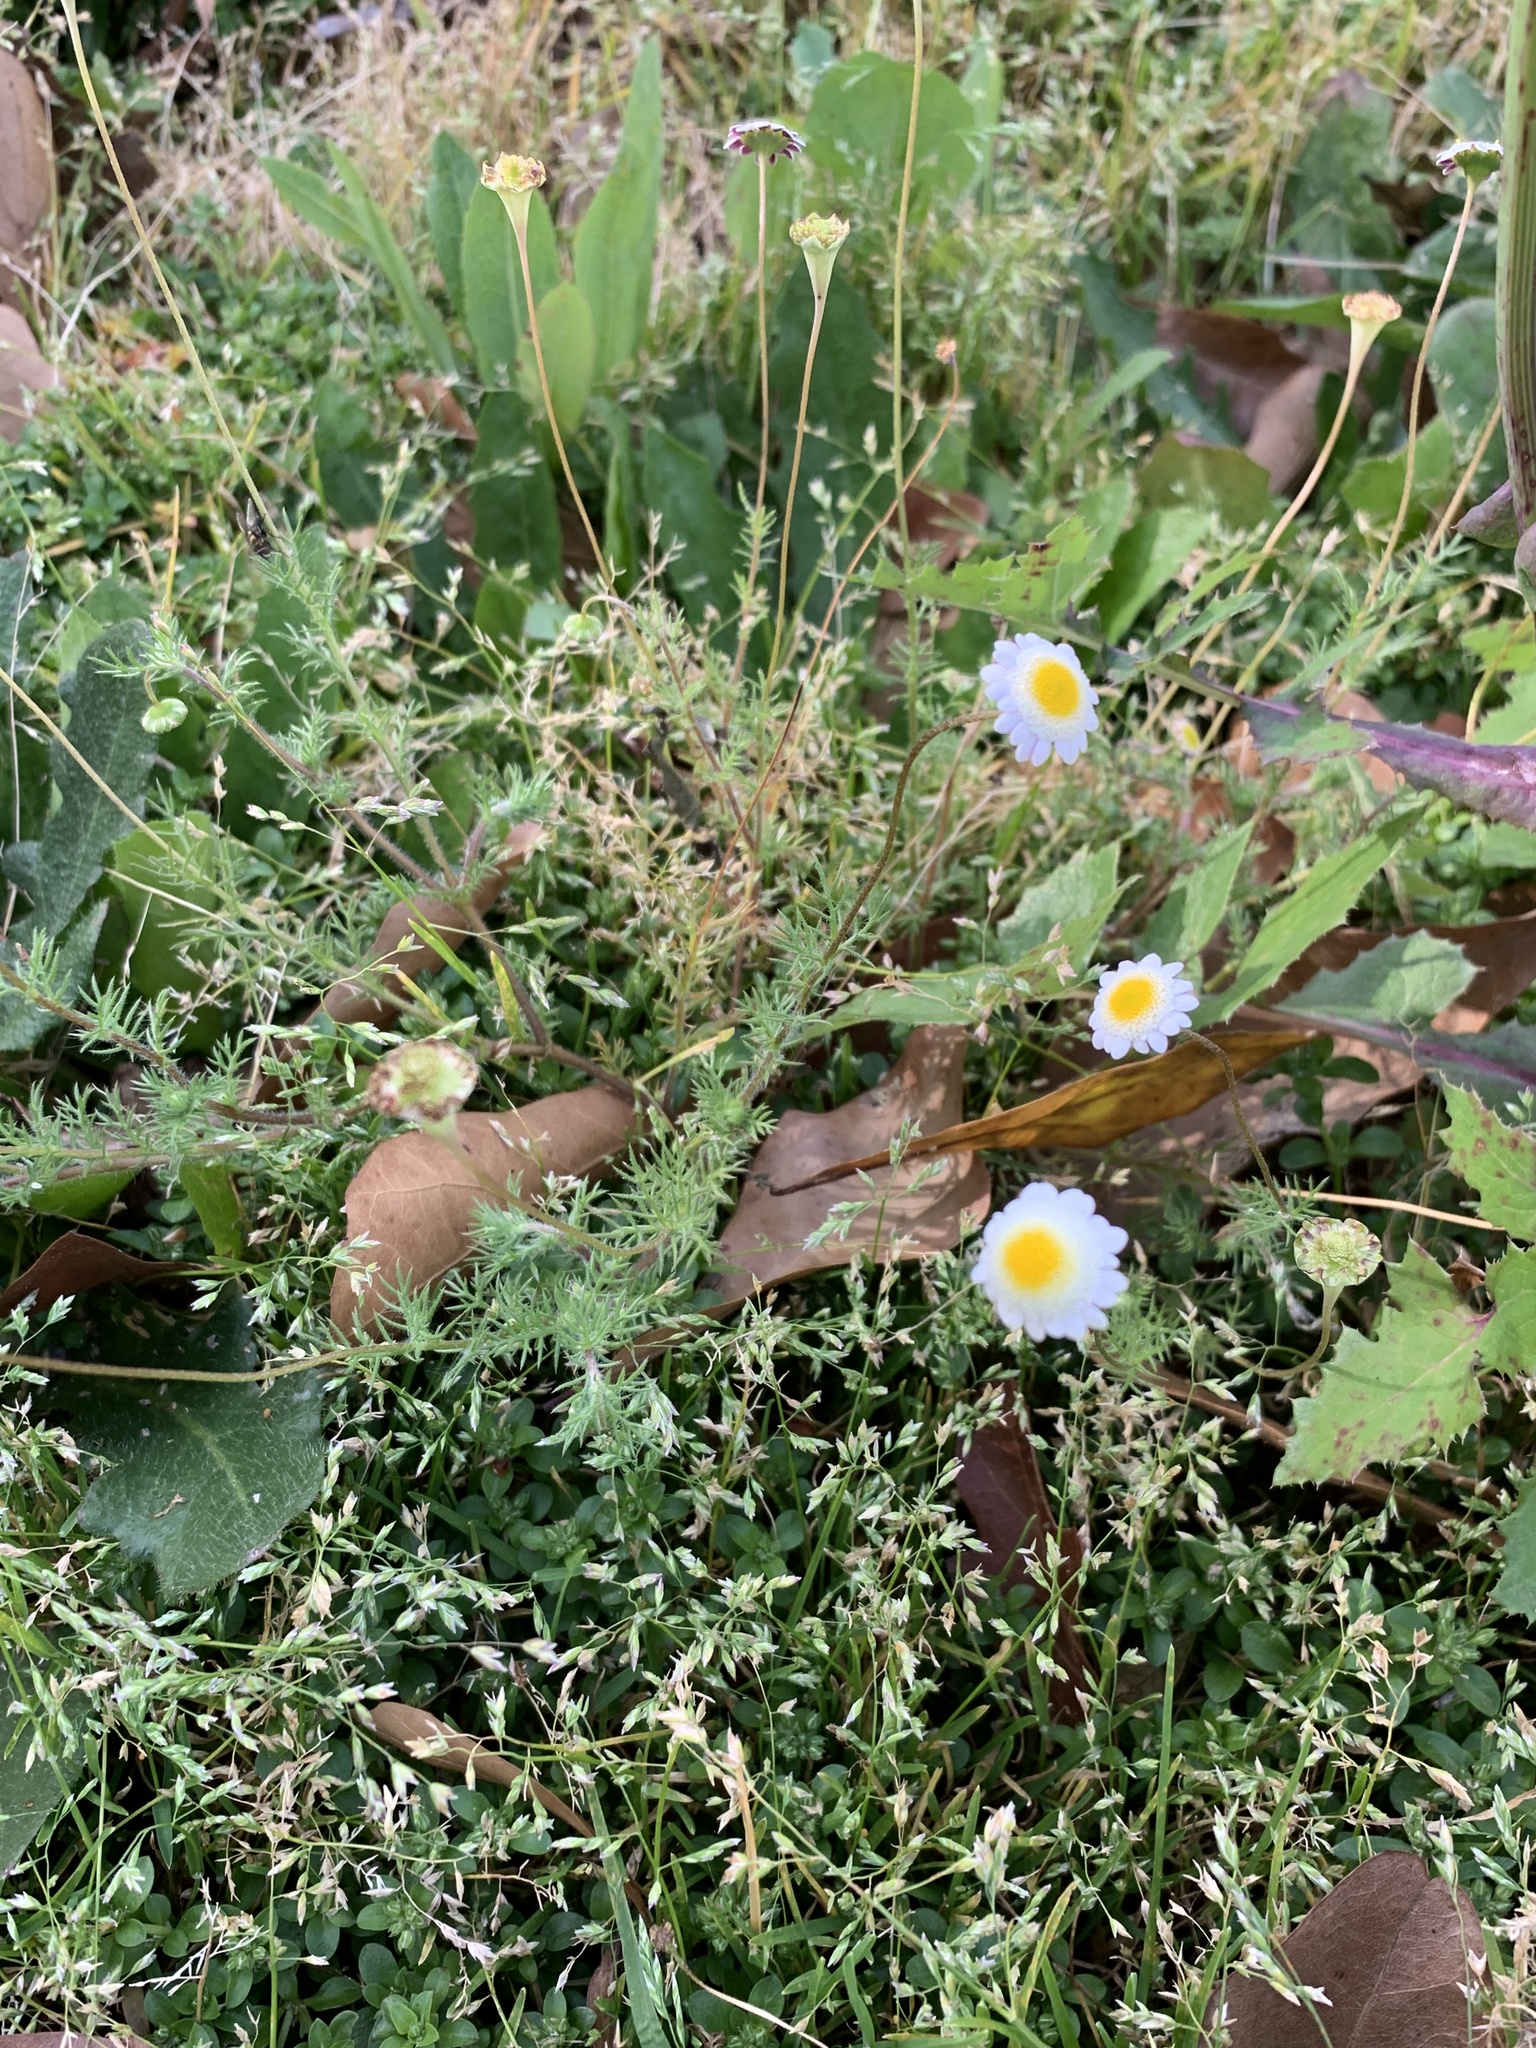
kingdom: Plantae
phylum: Tracheophyta
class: Magnoliopsida
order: Asterales
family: Asteraceae
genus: Cotula
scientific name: Cotula turbinata
